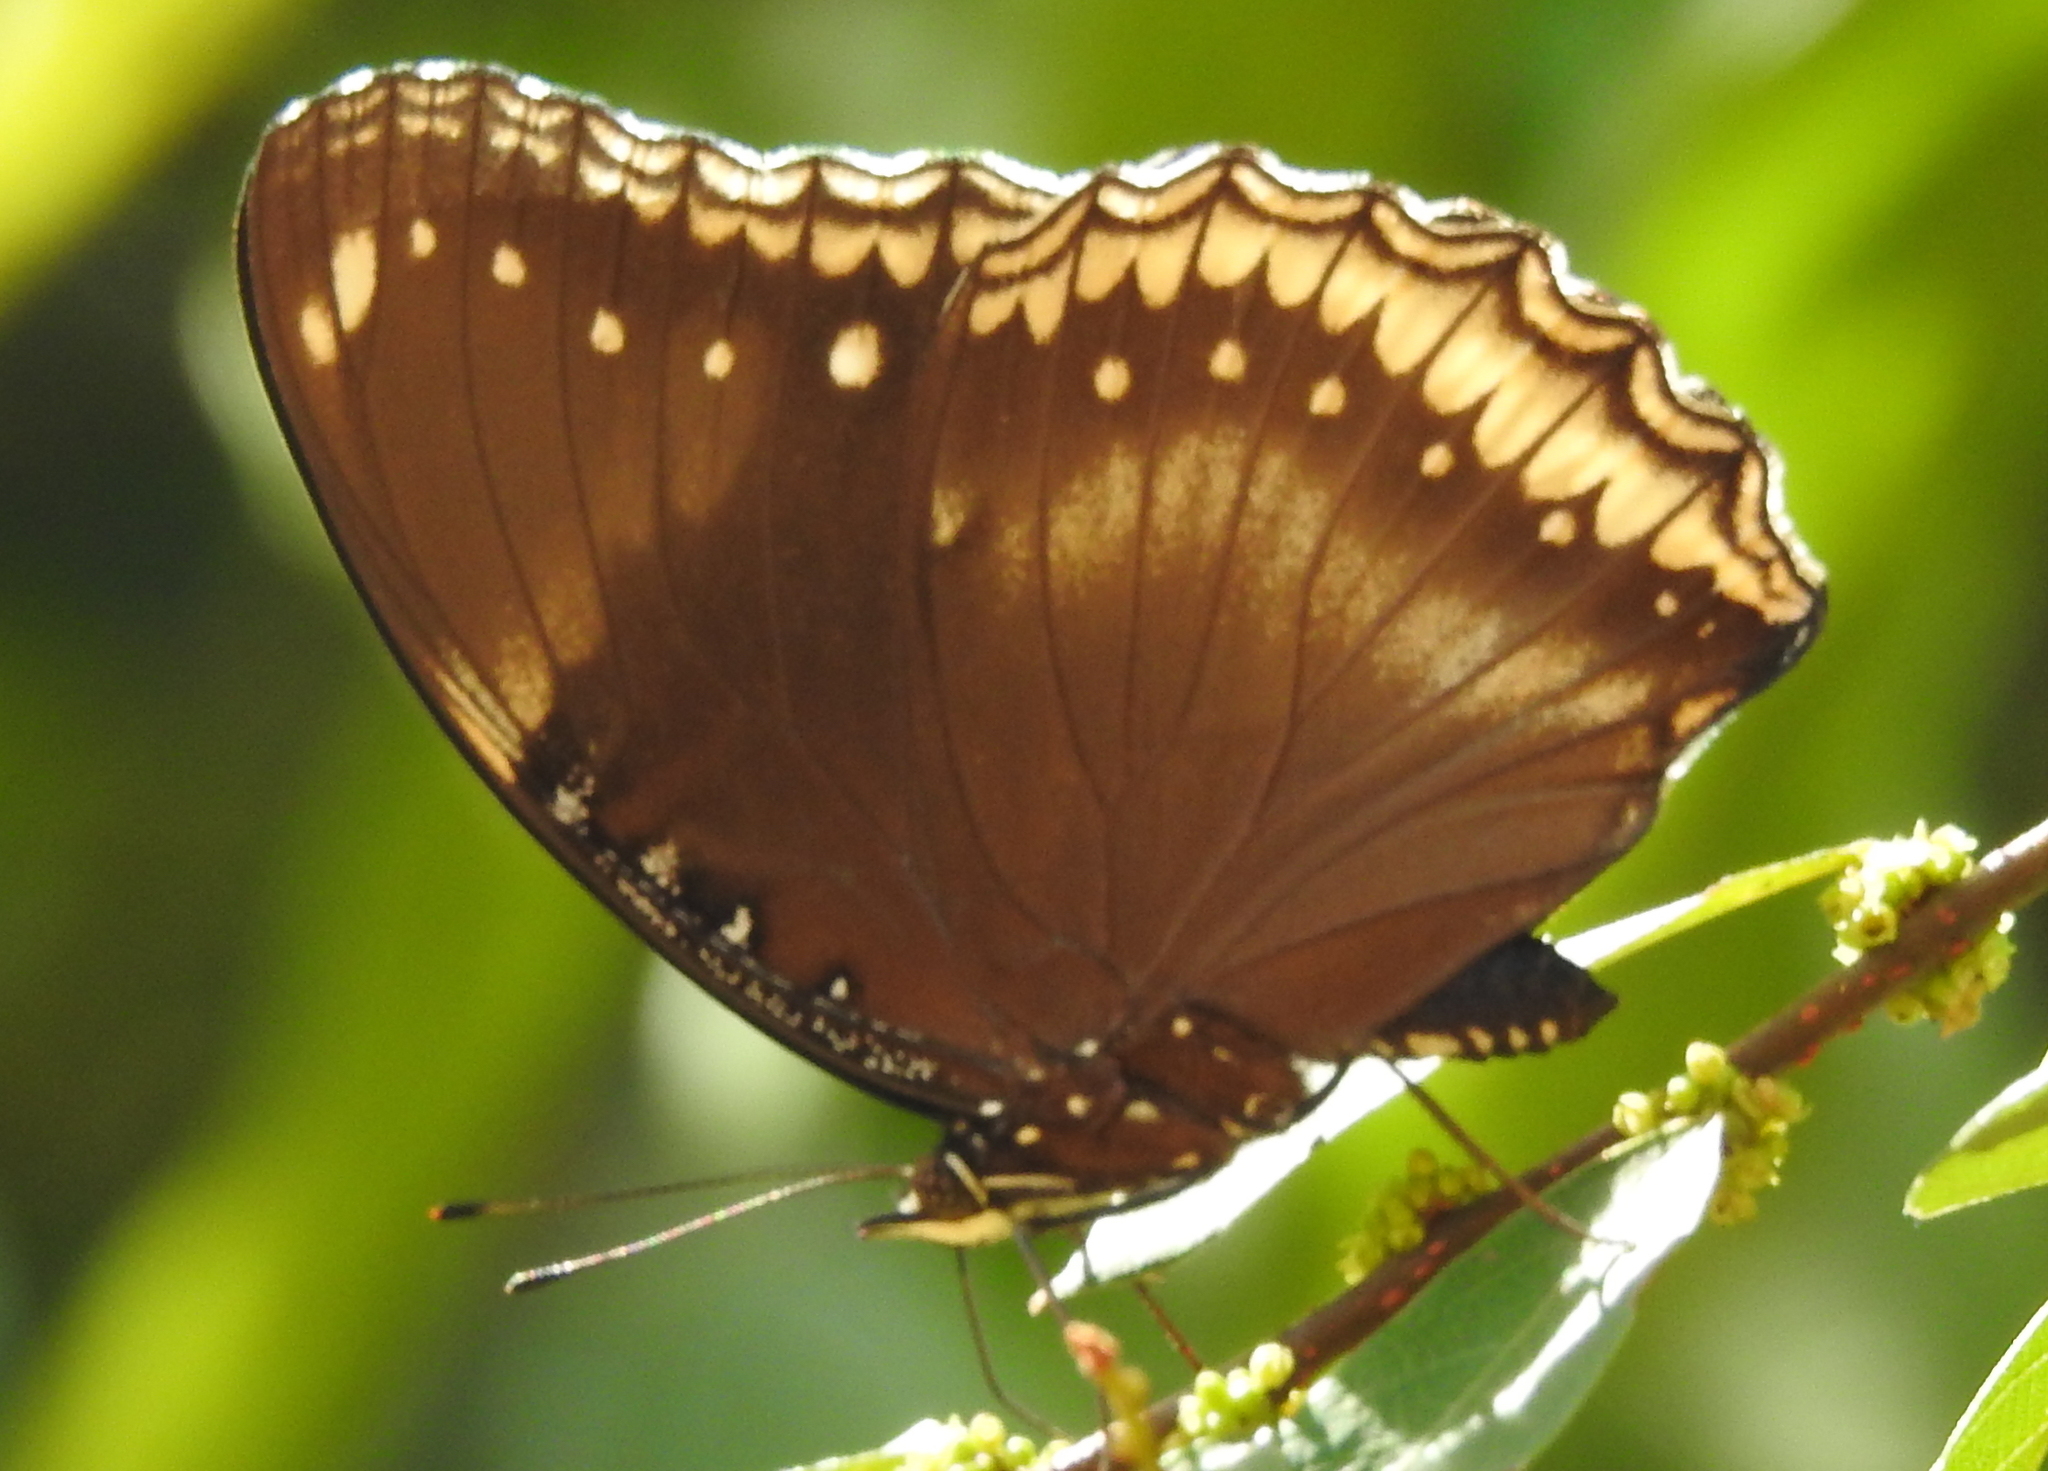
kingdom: Animalia
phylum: Arthropoda
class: Insecta
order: Lepidoptera
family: Nymphalidae
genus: Hypolimnas
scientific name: Hypolimnas bolina
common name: Great eggfly
